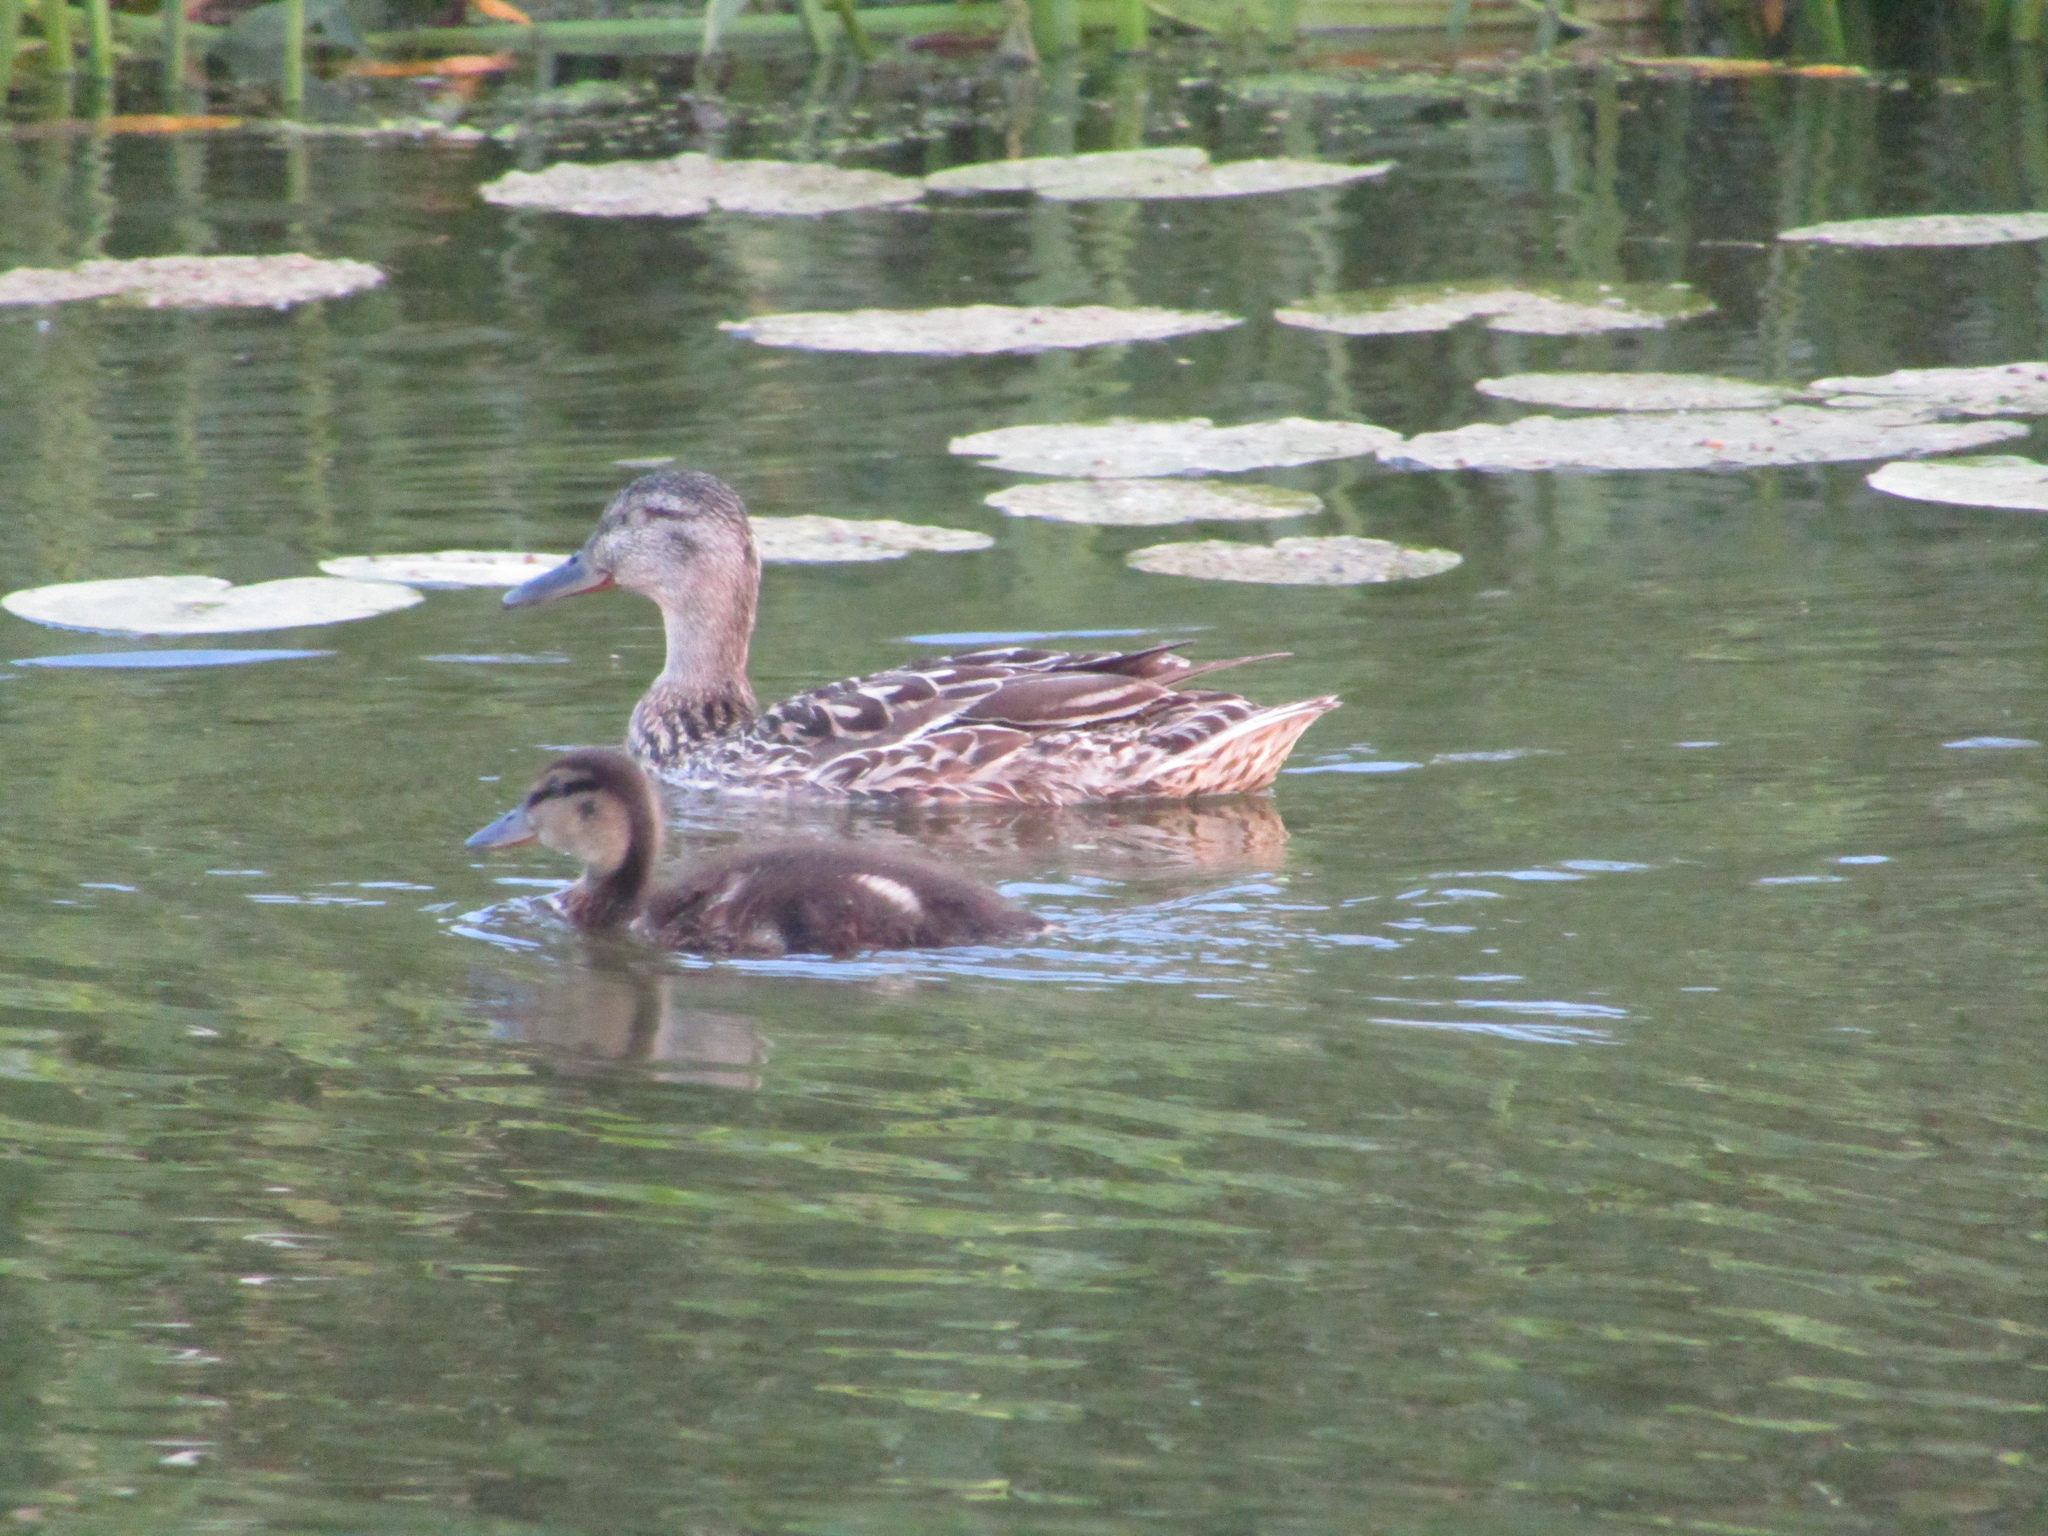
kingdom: Animalia
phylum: Chordata
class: Aves
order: Anseriformes
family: Anatidae
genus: Anas
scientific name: Anas platyrhynchos
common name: Mallard
